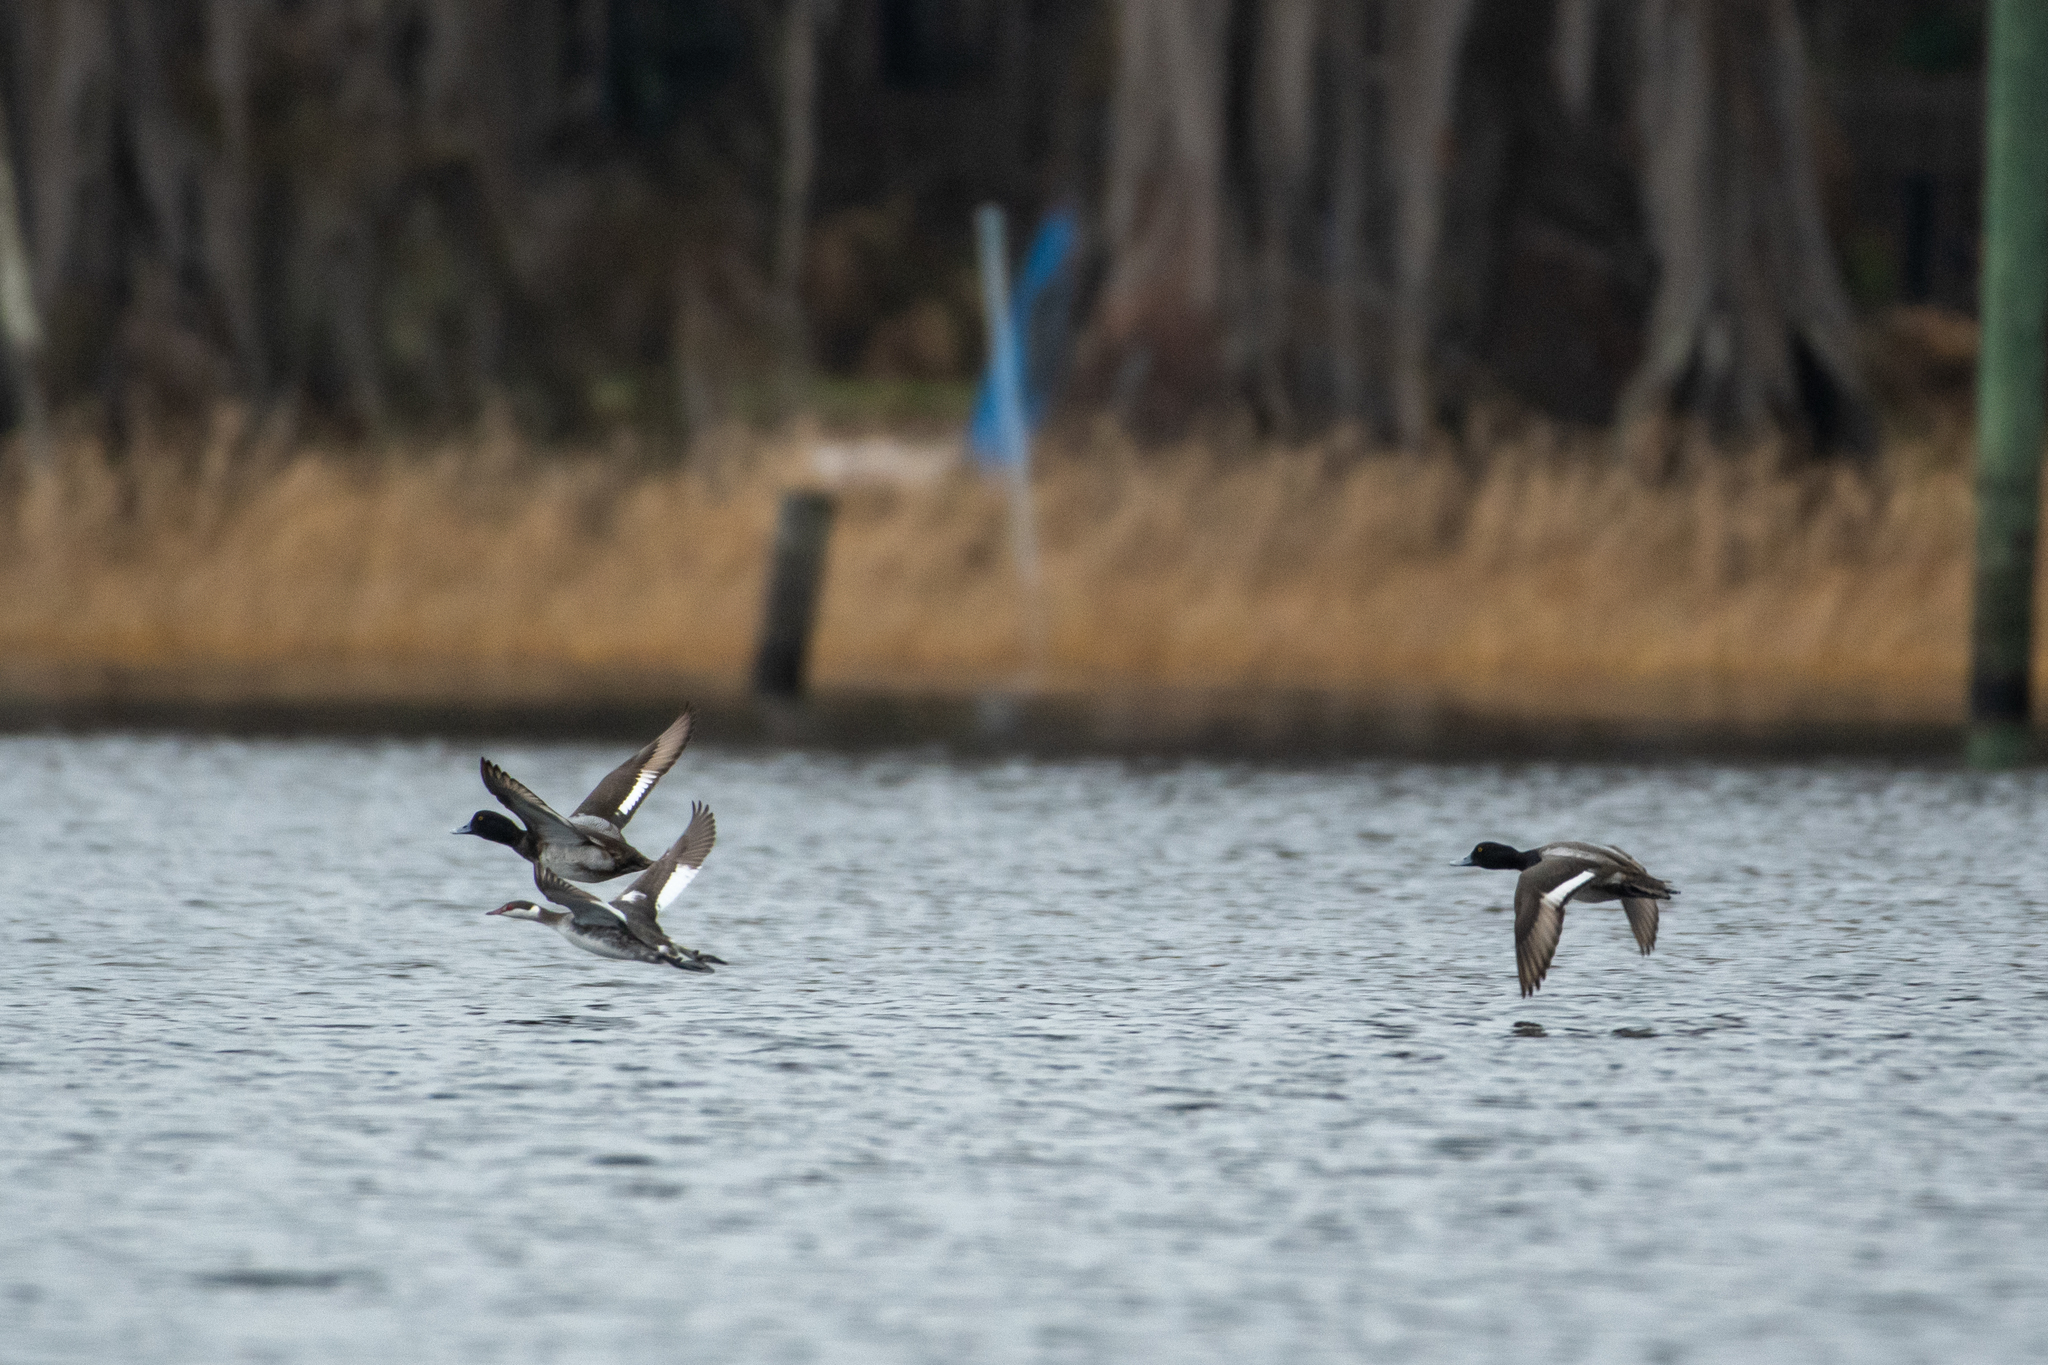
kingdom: Animalia
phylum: Chordata
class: Aves
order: Anseriformes
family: Anatidae
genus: Aythya
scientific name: Aythya affinis
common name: Lesser scaup
